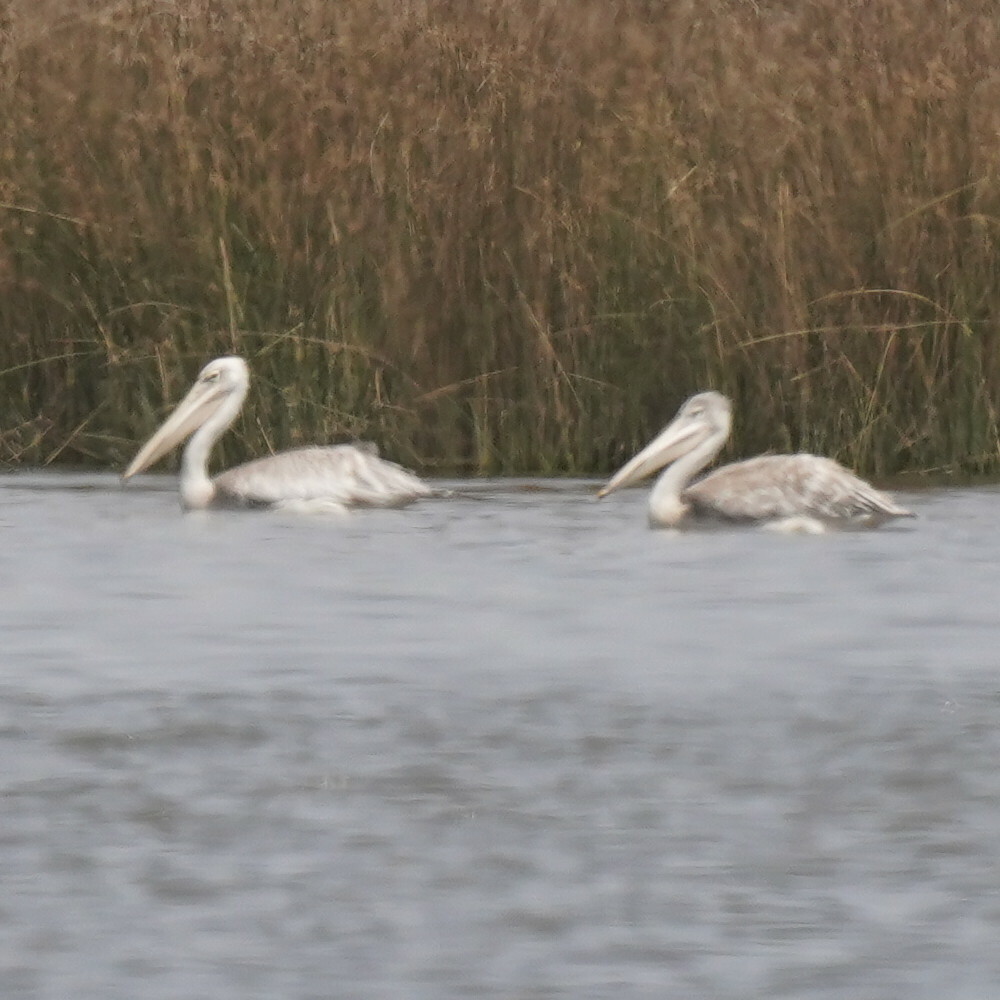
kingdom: Animalia
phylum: Chordata
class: Aves
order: Pelecaniformes
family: Pelecanidae
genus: Pelecanus
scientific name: Pelecanus rufescens
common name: Pink-backed pelican
